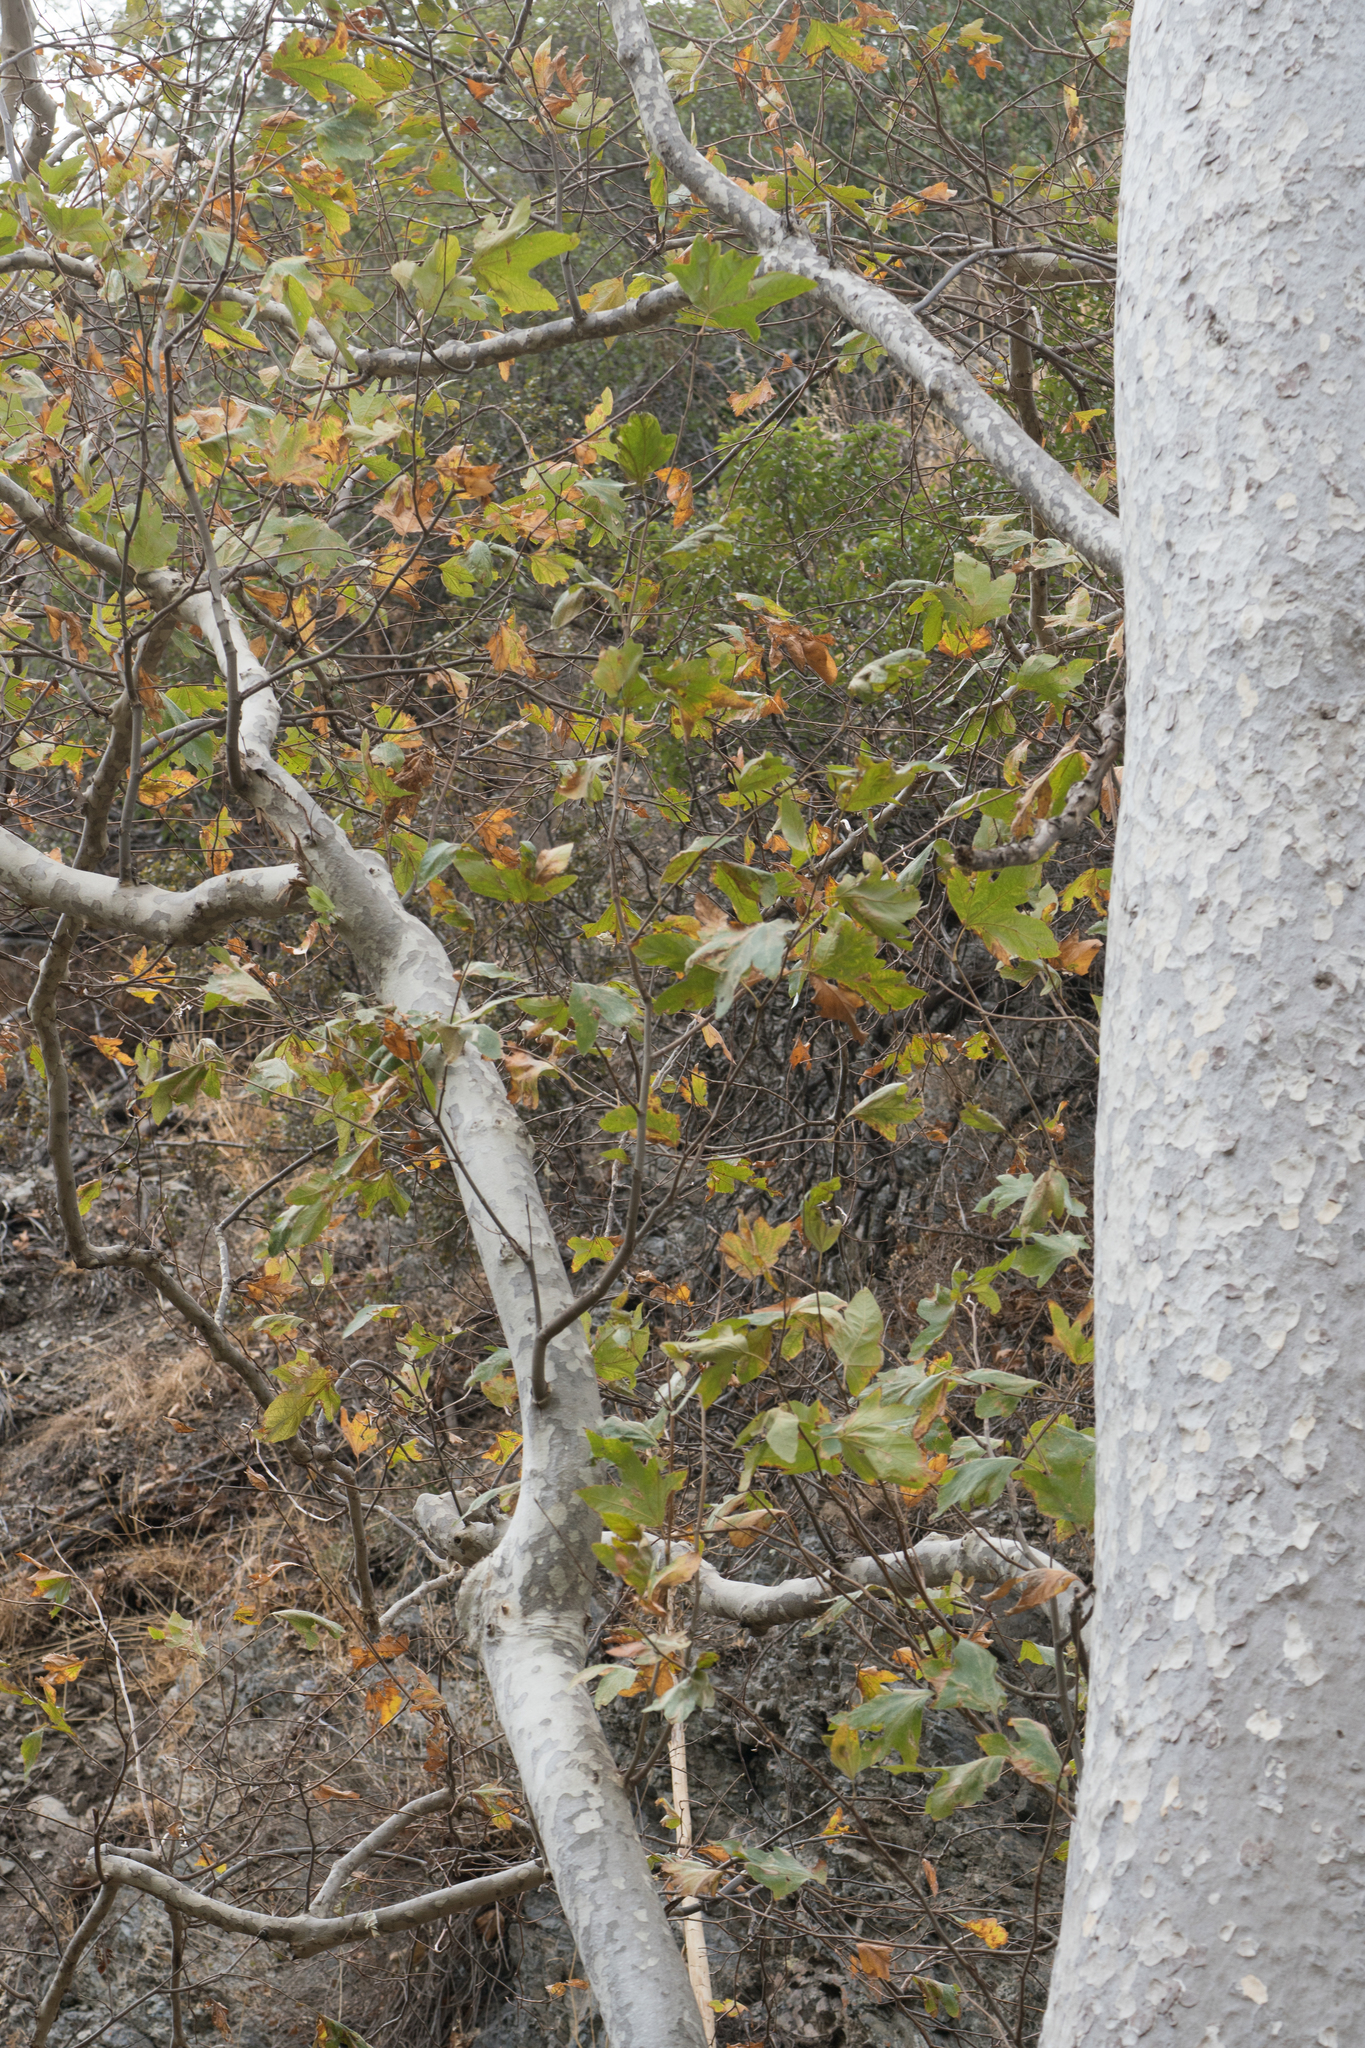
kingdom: Plantae
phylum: Tracheophyta
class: Magnoliopsida
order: Proteales
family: Platanaceae
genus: Platanus
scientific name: Platanus racemosa
